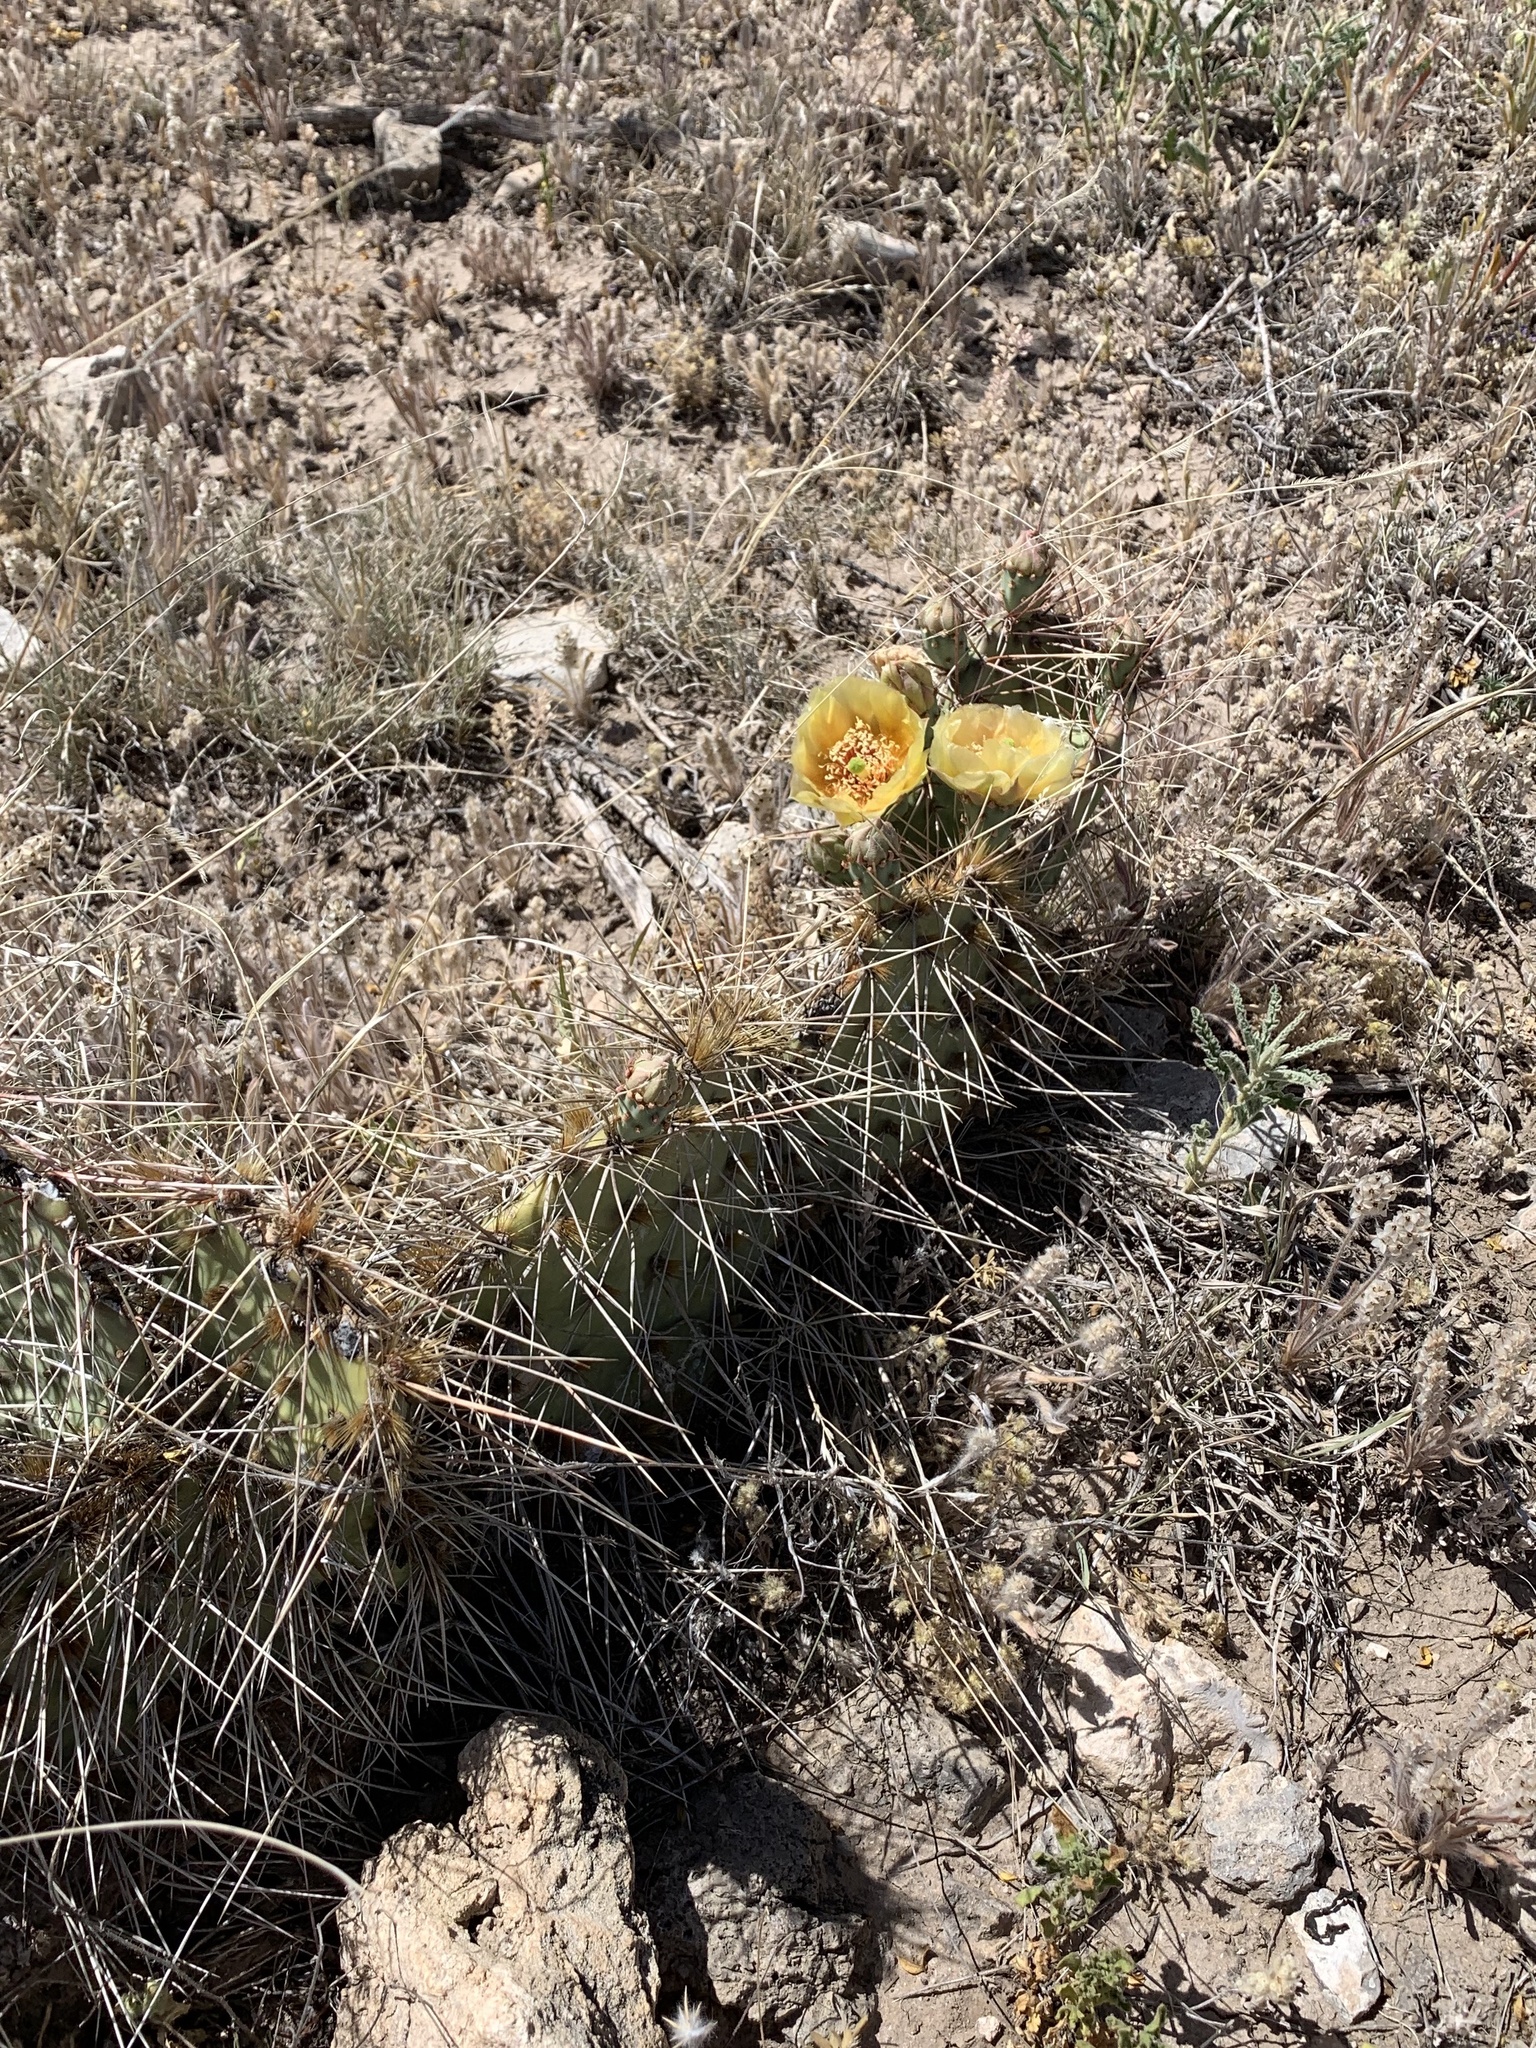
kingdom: Plantae
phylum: Tracheophyta
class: Magnoliopsida
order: Caryophyllales
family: Cactaceae
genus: Opuntia
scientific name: Opuntia macrorhiza
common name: Grassland pricklypear
